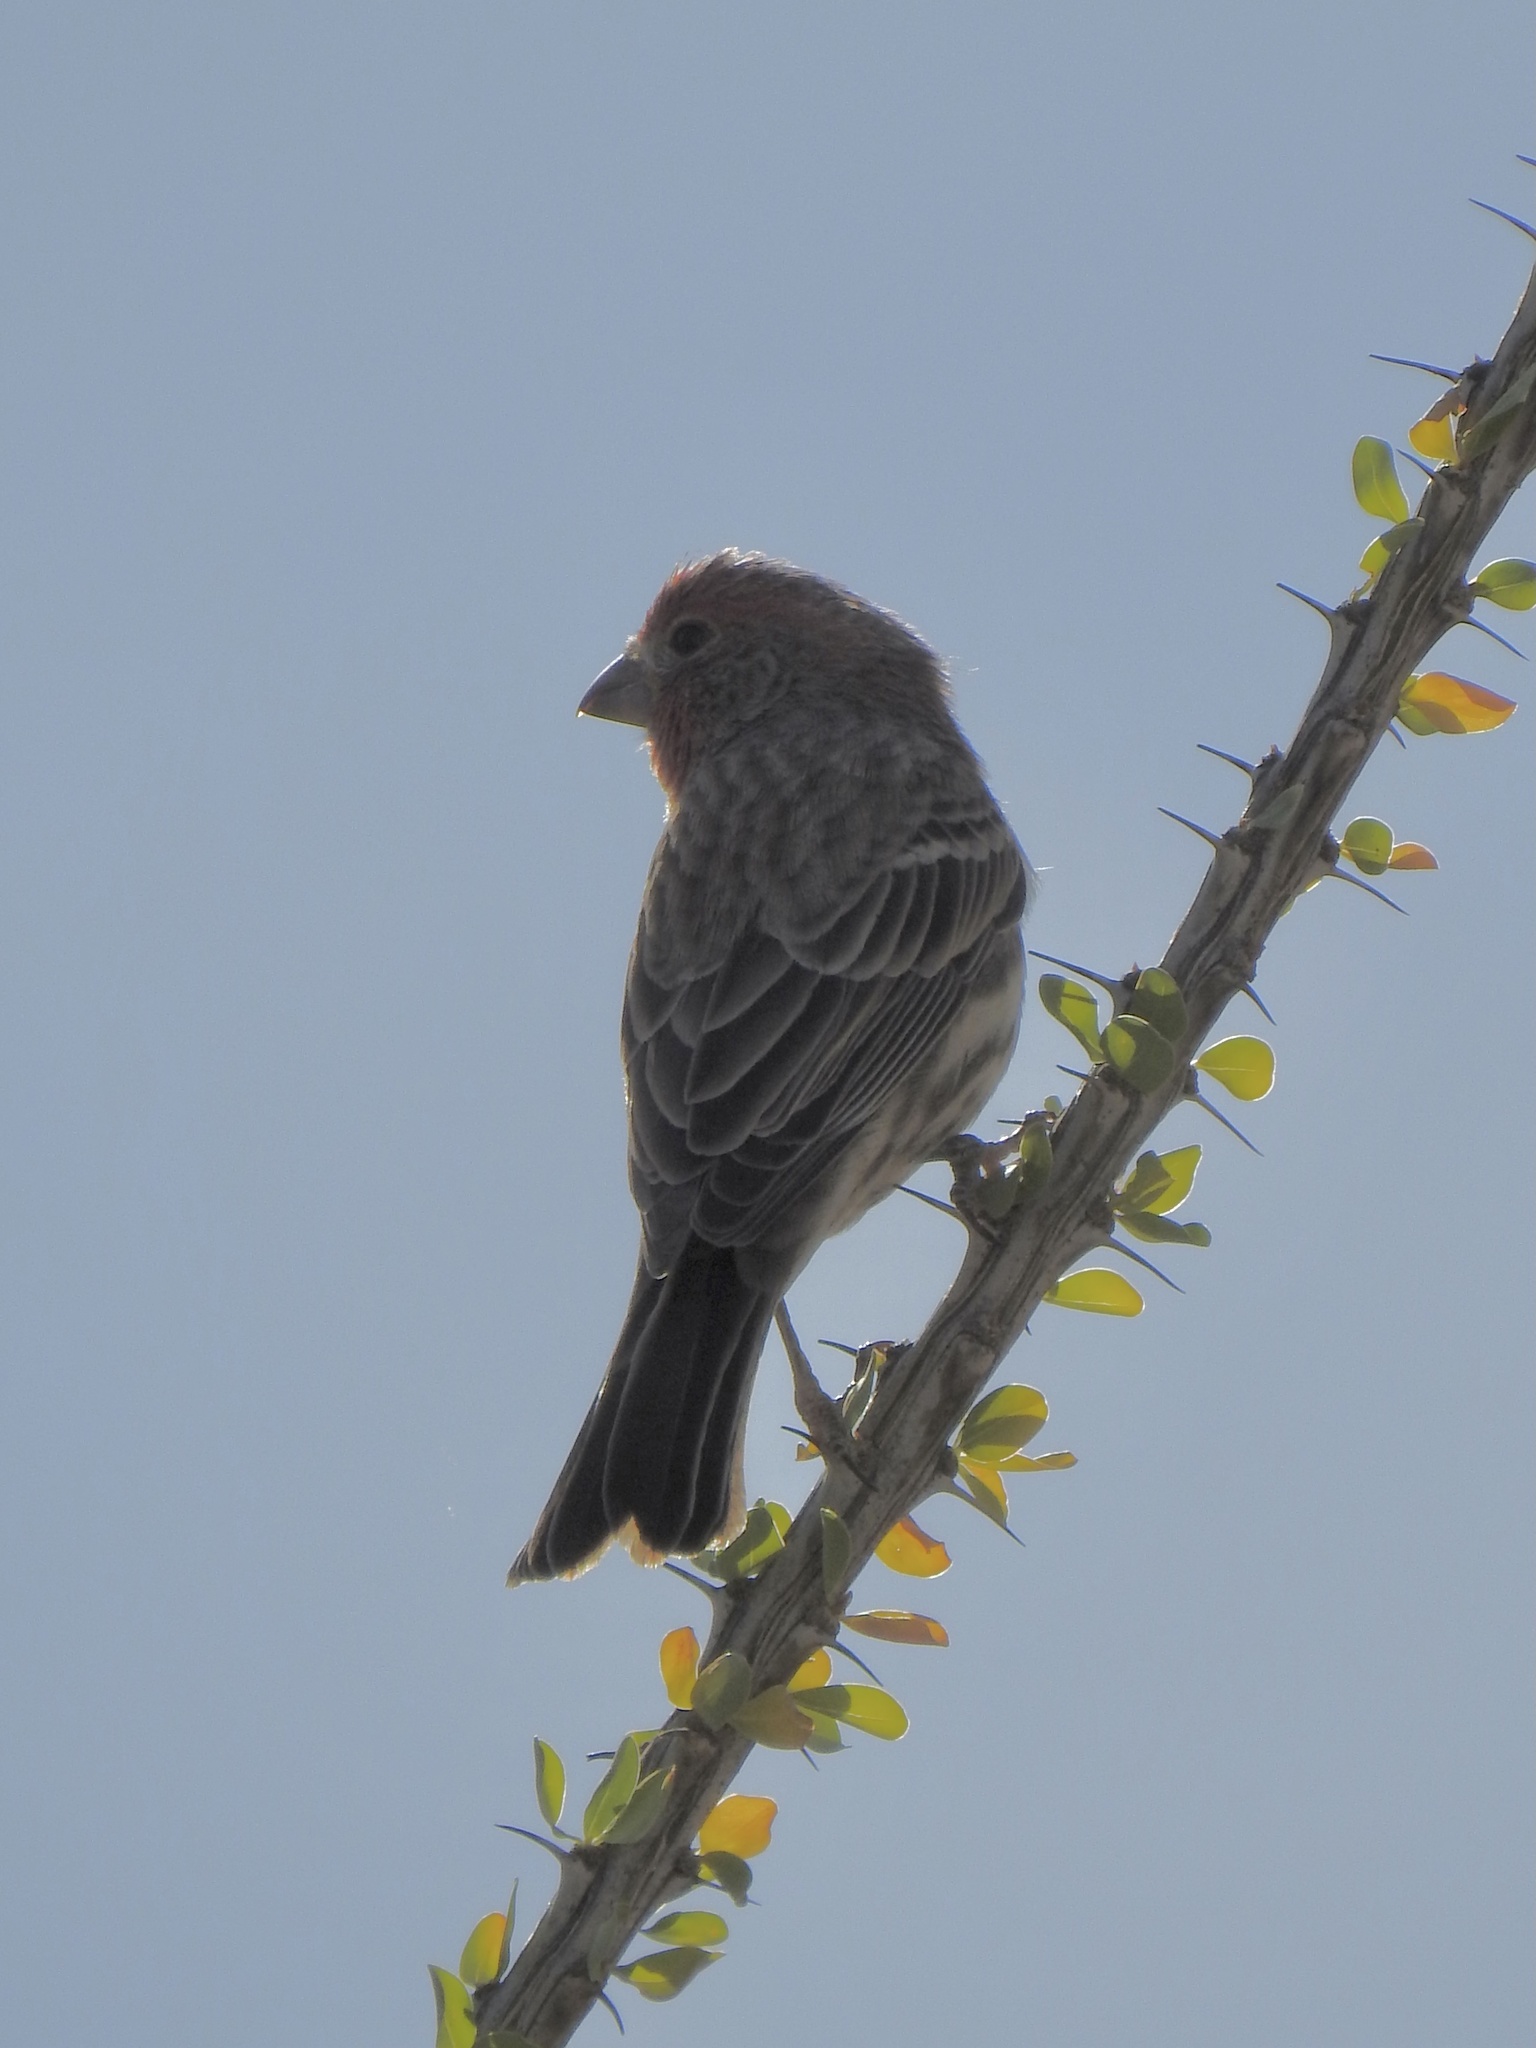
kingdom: Animalia
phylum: Chordata
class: Aves
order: Passeriformes
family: Fringillidae
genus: Haemorhous
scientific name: Haemorhous mexicanus
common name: House finch
